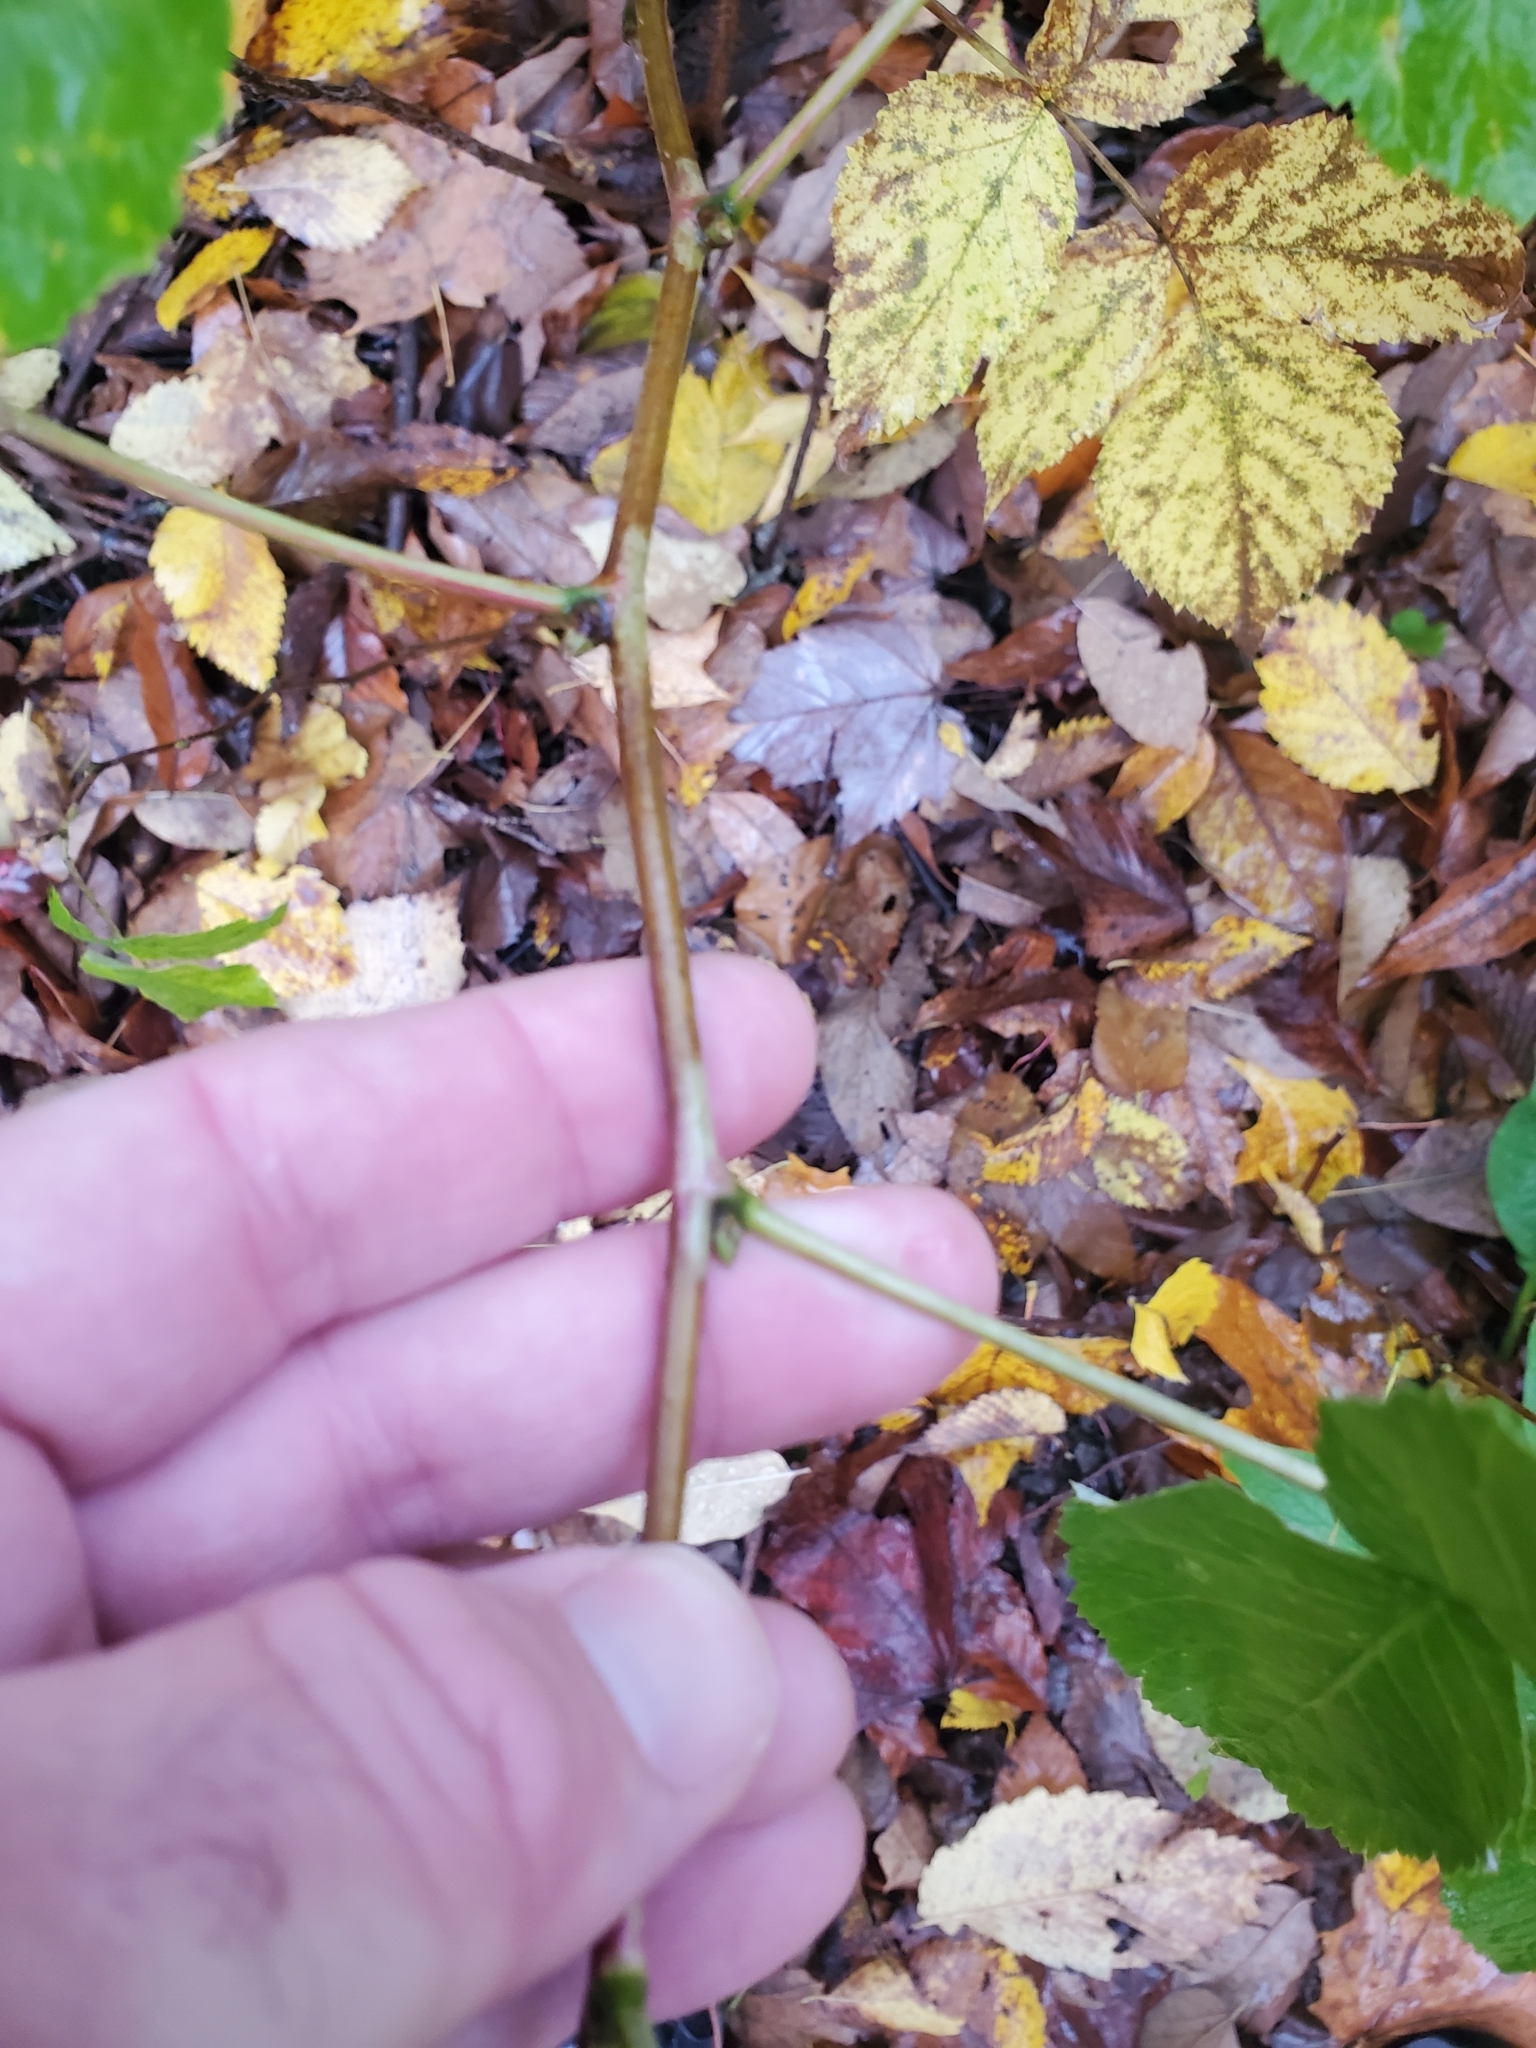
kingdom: Plantae
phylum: Tracheophyta
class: Magnoliopsida
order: Rosales
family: Rosaceae
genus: Rubus
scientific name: Rubus idaeus
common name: Raspberry
